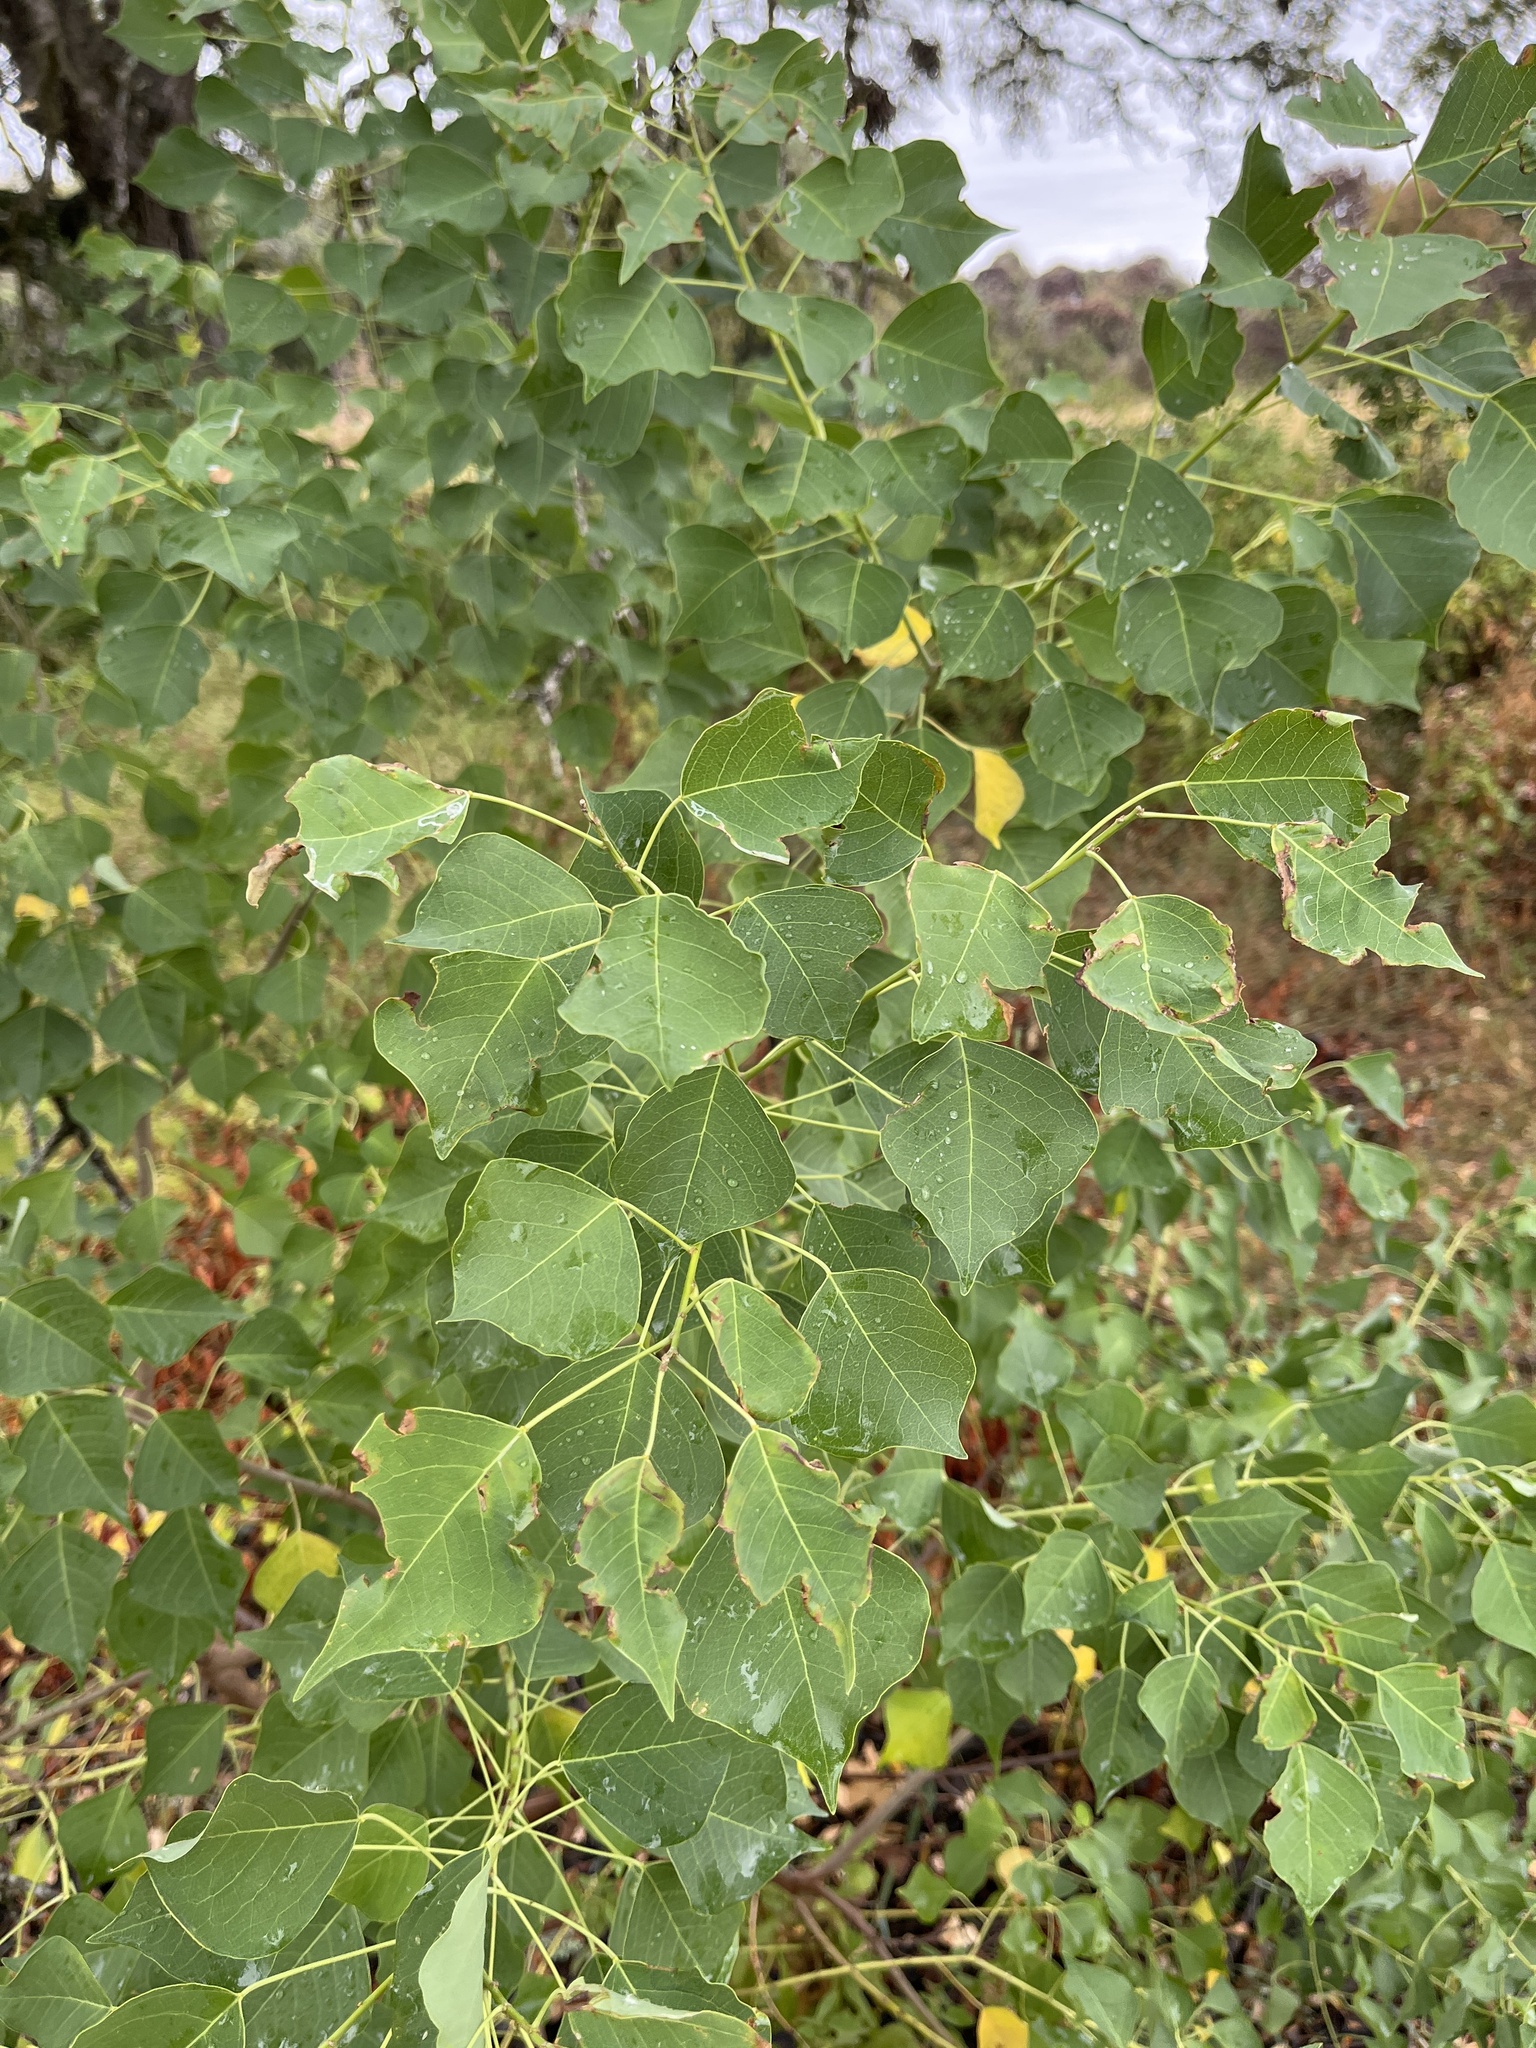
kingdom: Plantae
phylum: Tracheophyta
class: Magnoliopsida
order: Malpighiales
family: Euphorbiaceae
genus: Triadica
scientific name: Triadica sebifera
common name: Chinese tallow
